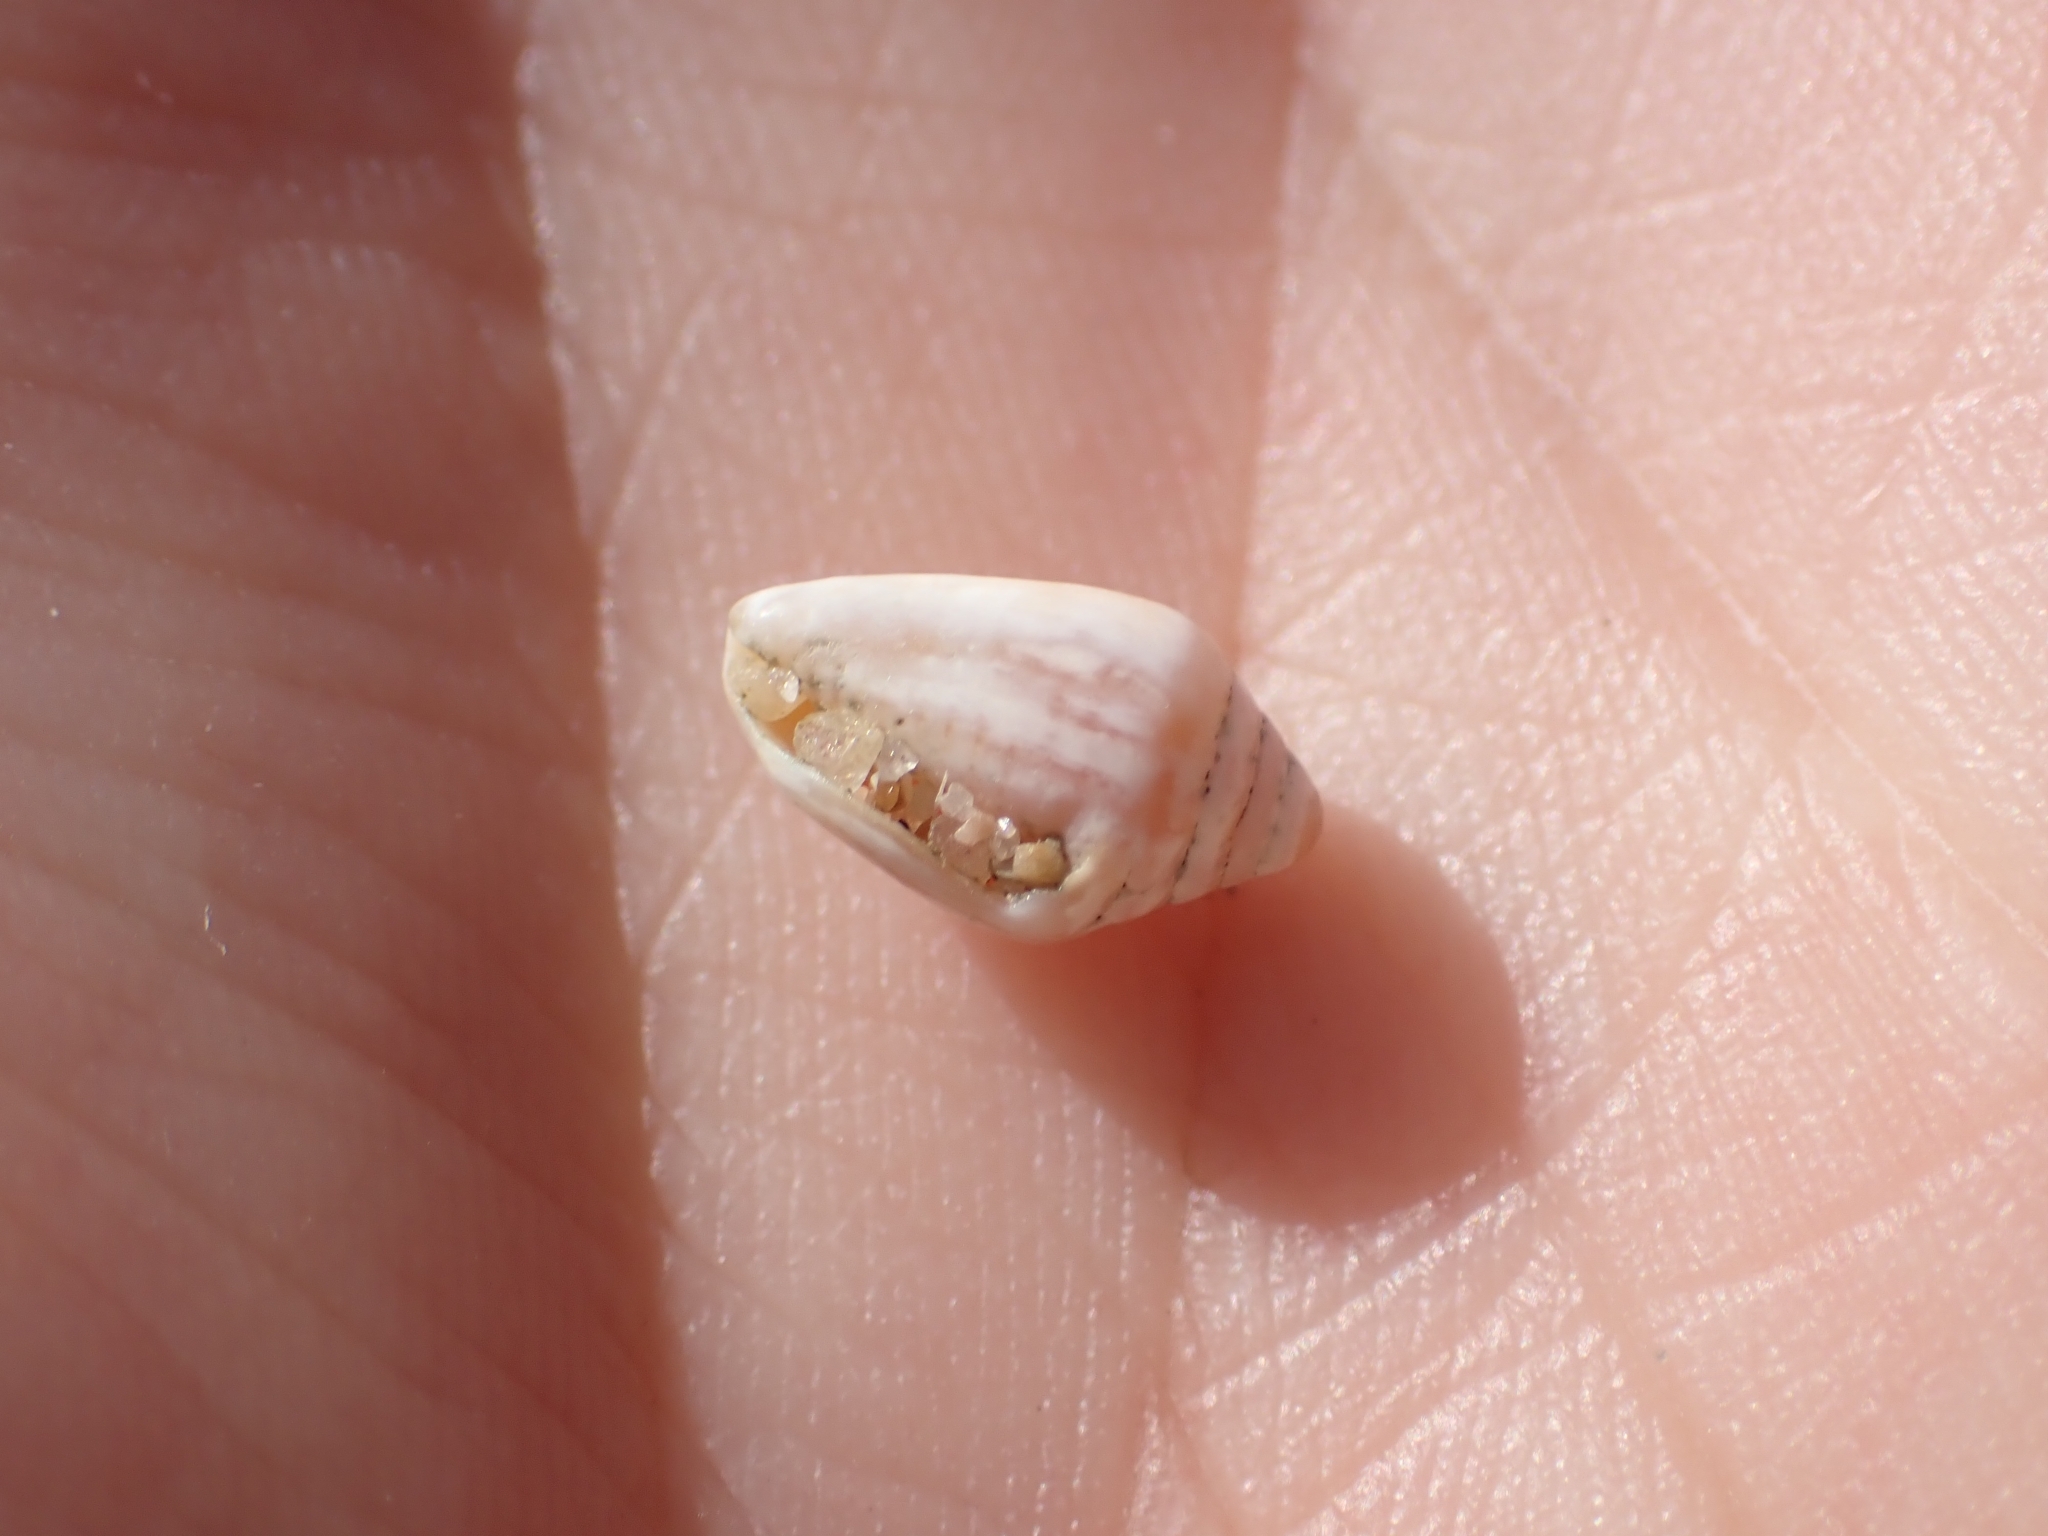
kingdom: Animalia
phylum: Mollusca
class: Gastropoda
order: Neogastropoda
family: Conidae
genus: Conus
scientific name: Conus ventricosus
